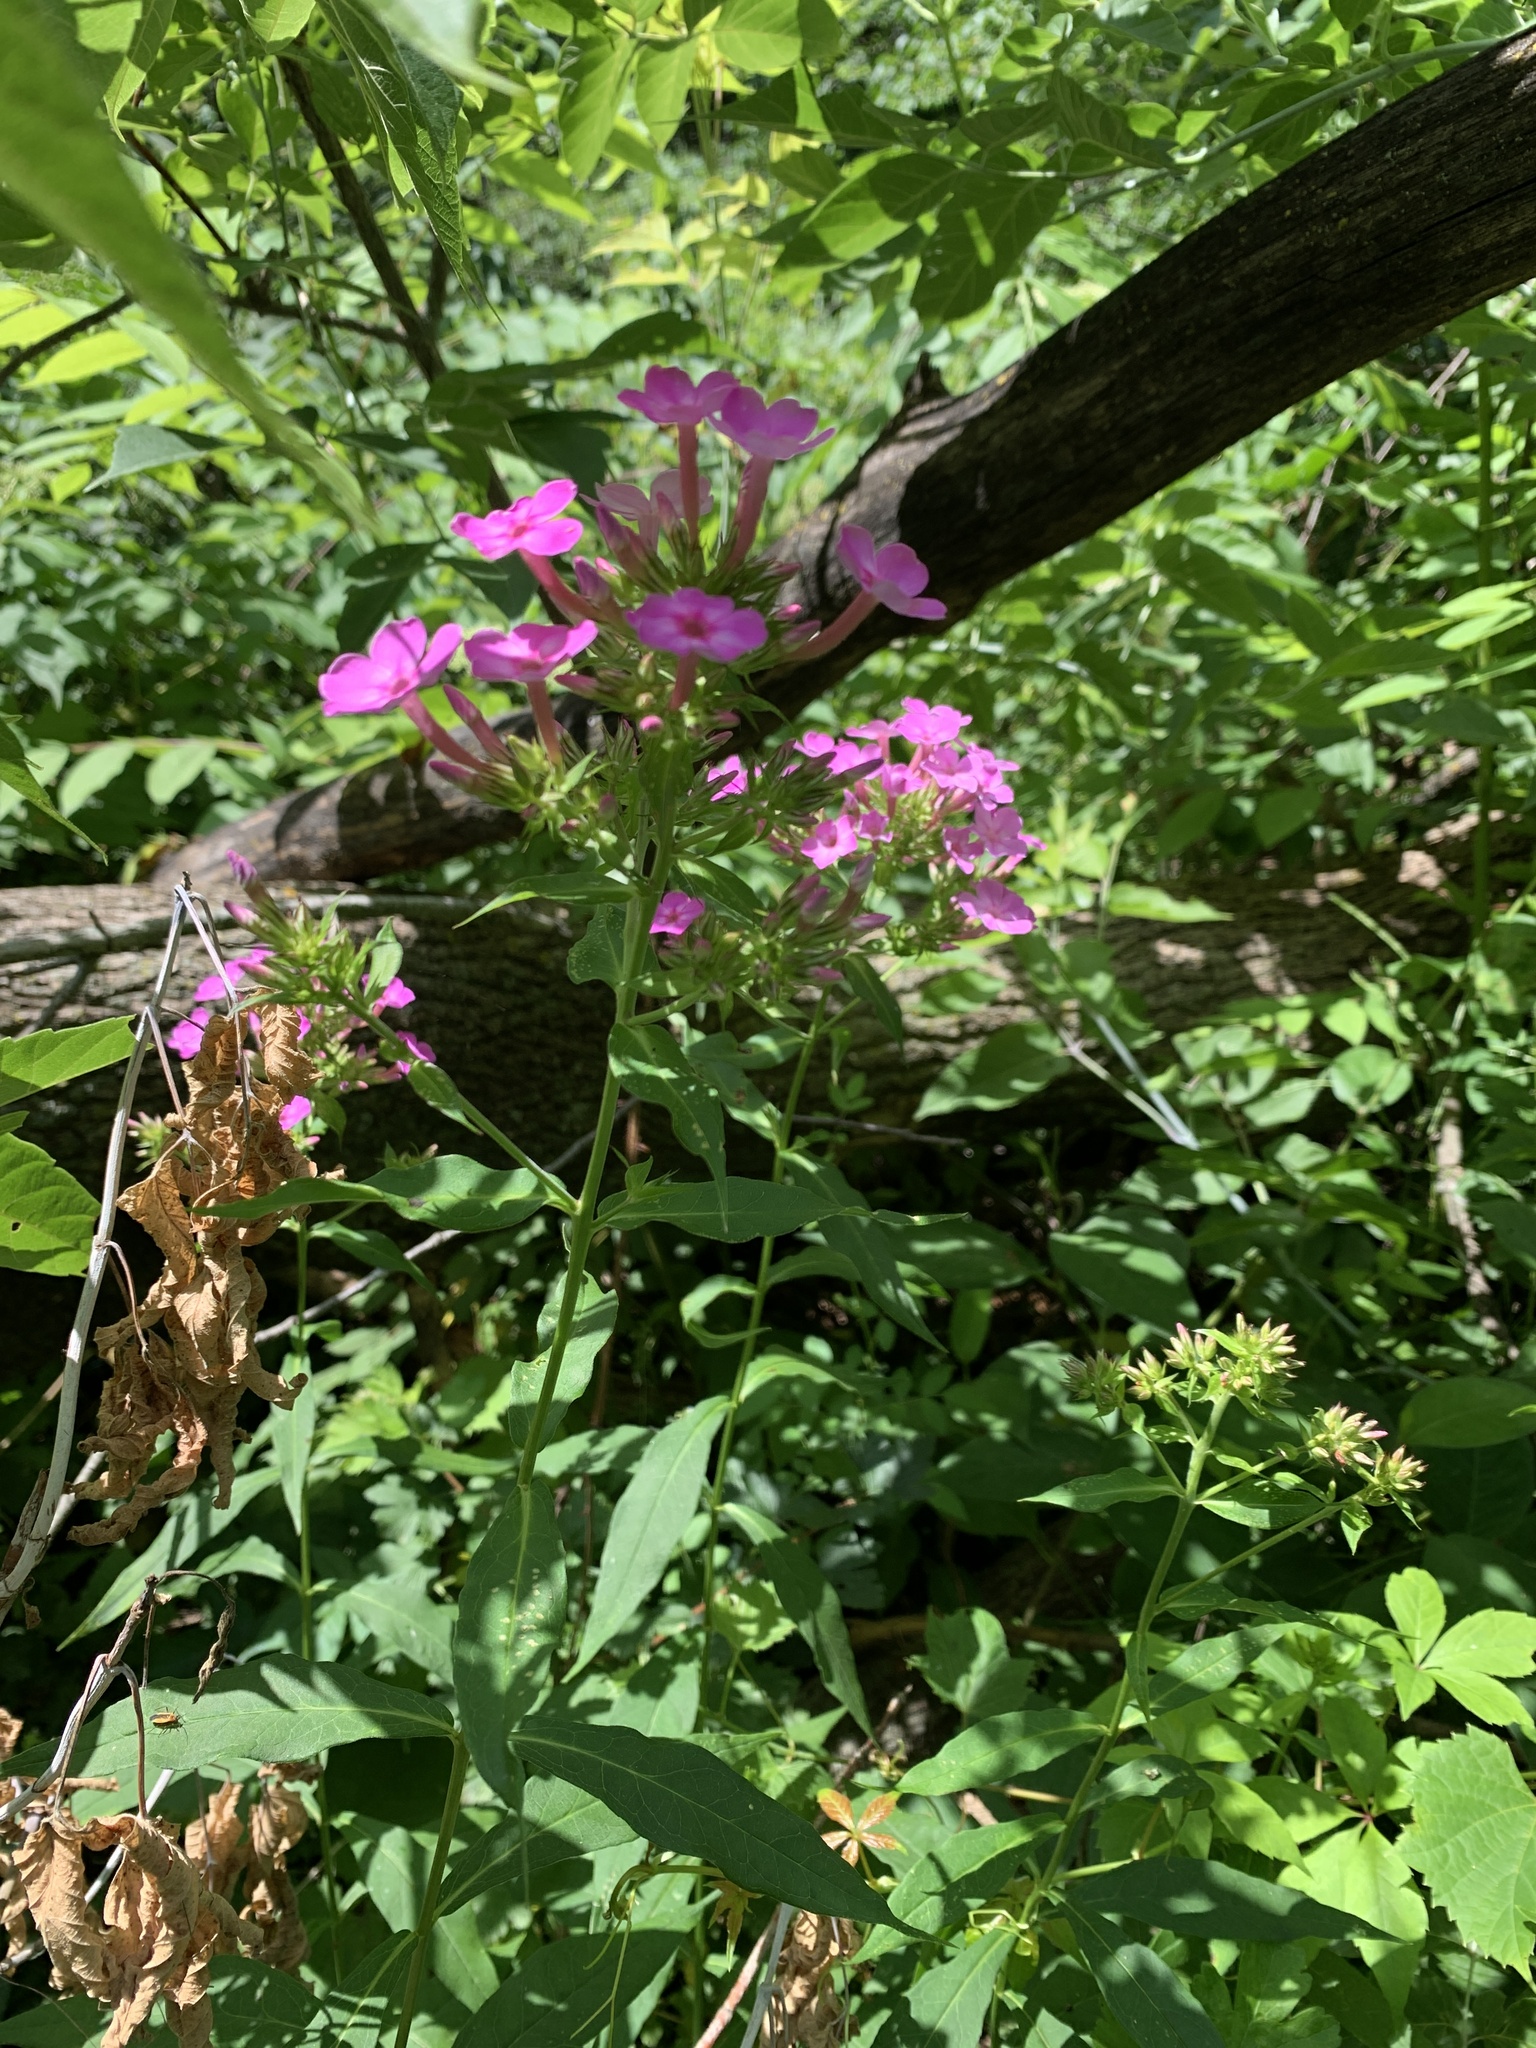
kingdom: Plantae
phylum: Tracheophyta
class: Magnoliopsida
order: Ericales
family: Polemoniaceae
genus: Phlox
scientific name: Phlox paniculata
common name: Fall phlox
